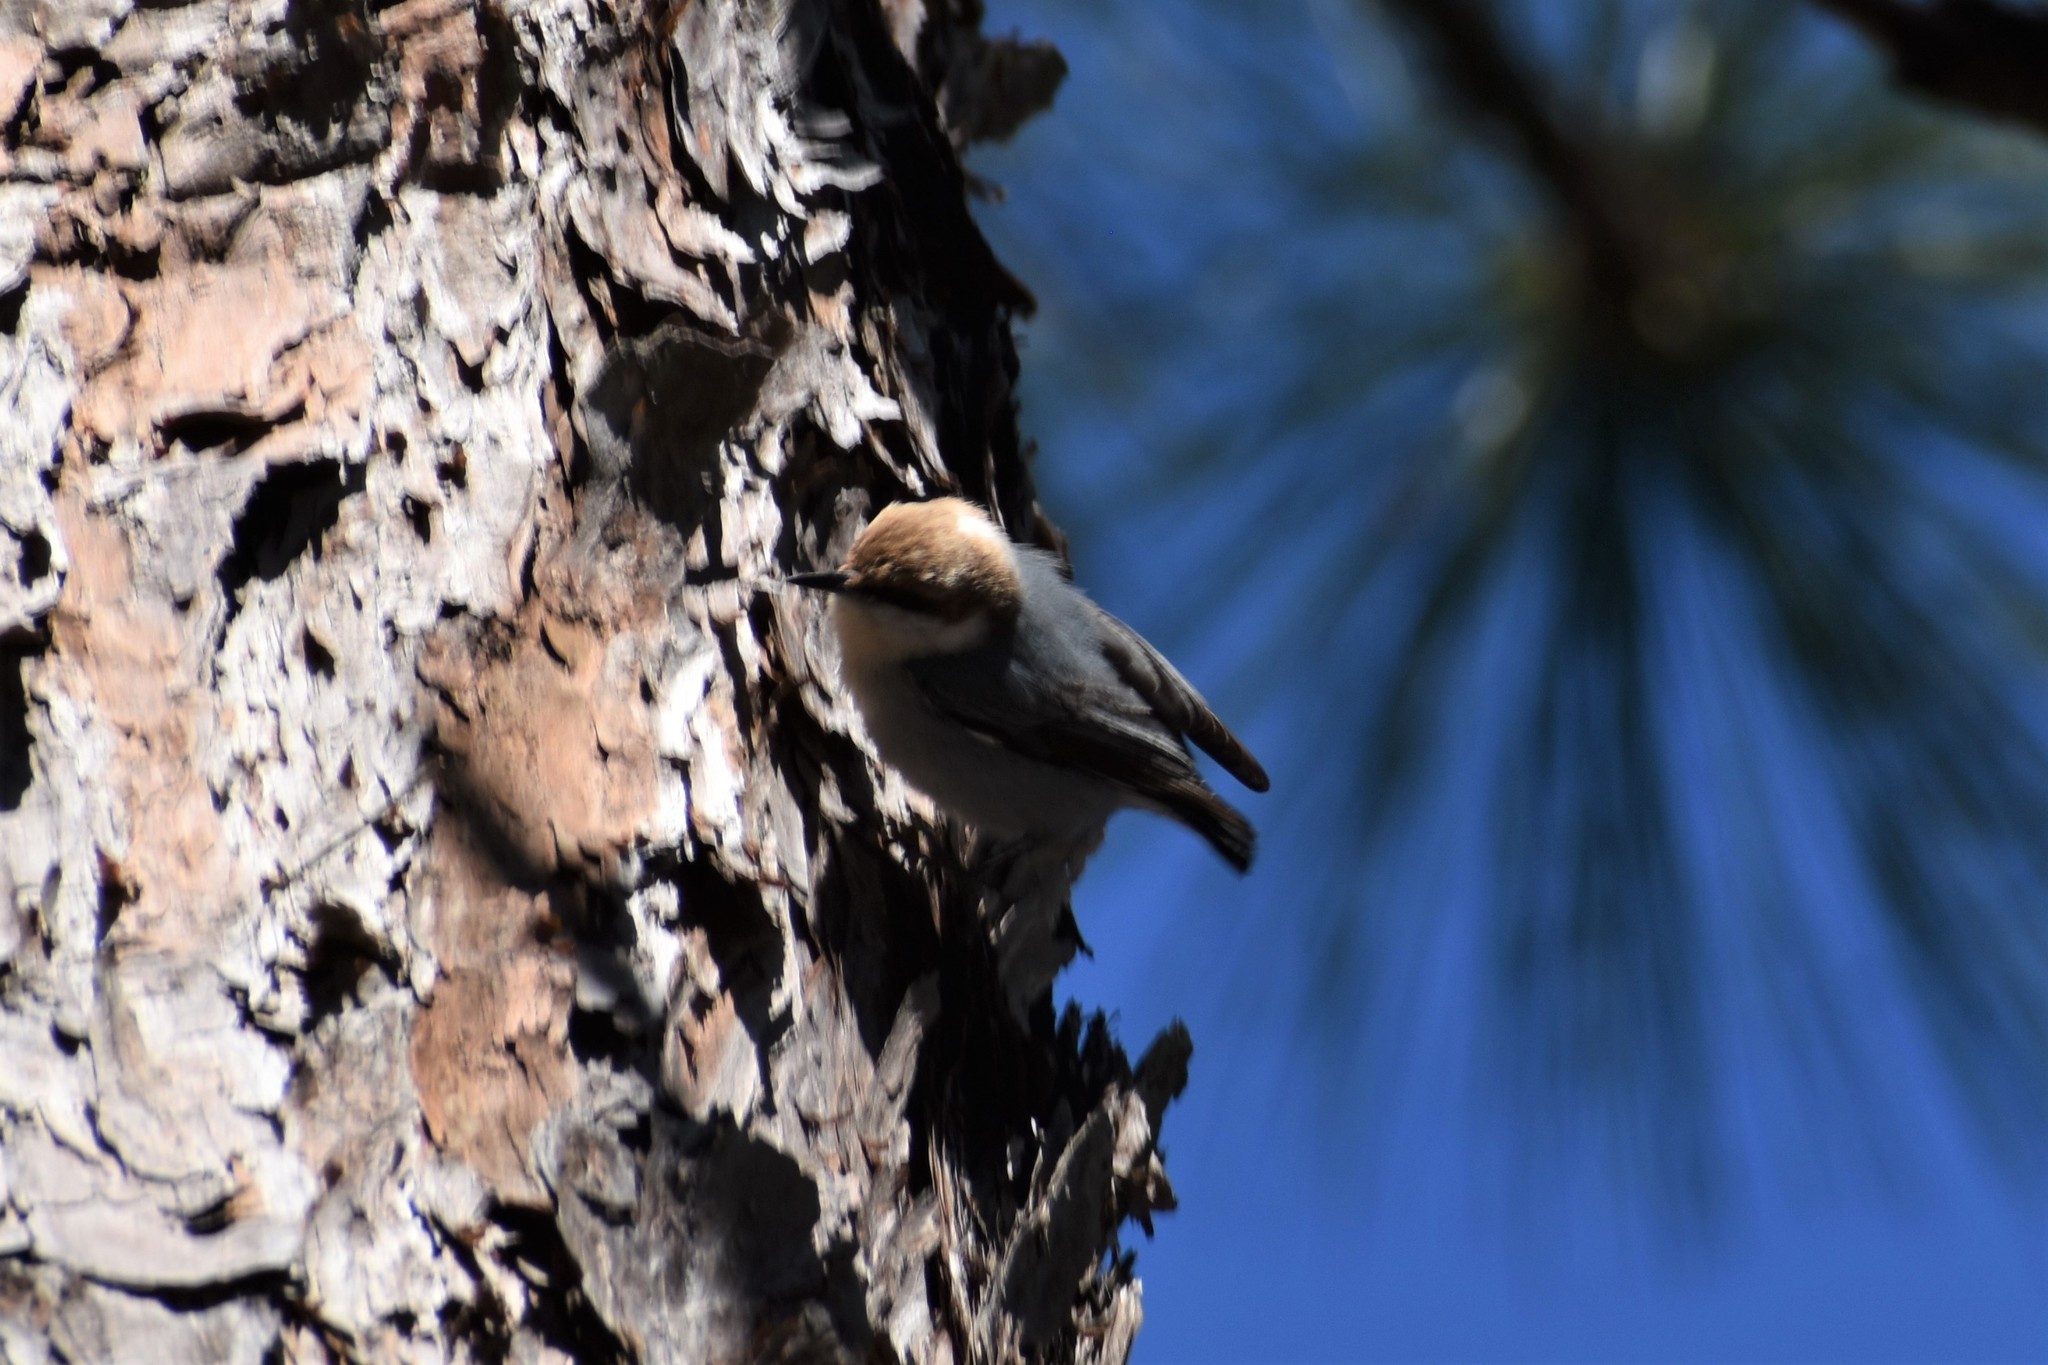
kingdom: Animalia
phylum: Chordata
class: Aves
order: Passeriformes
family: Sittidae
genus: Sitta
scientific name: Sitta pusilla
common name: Brown-headed nuthatch
